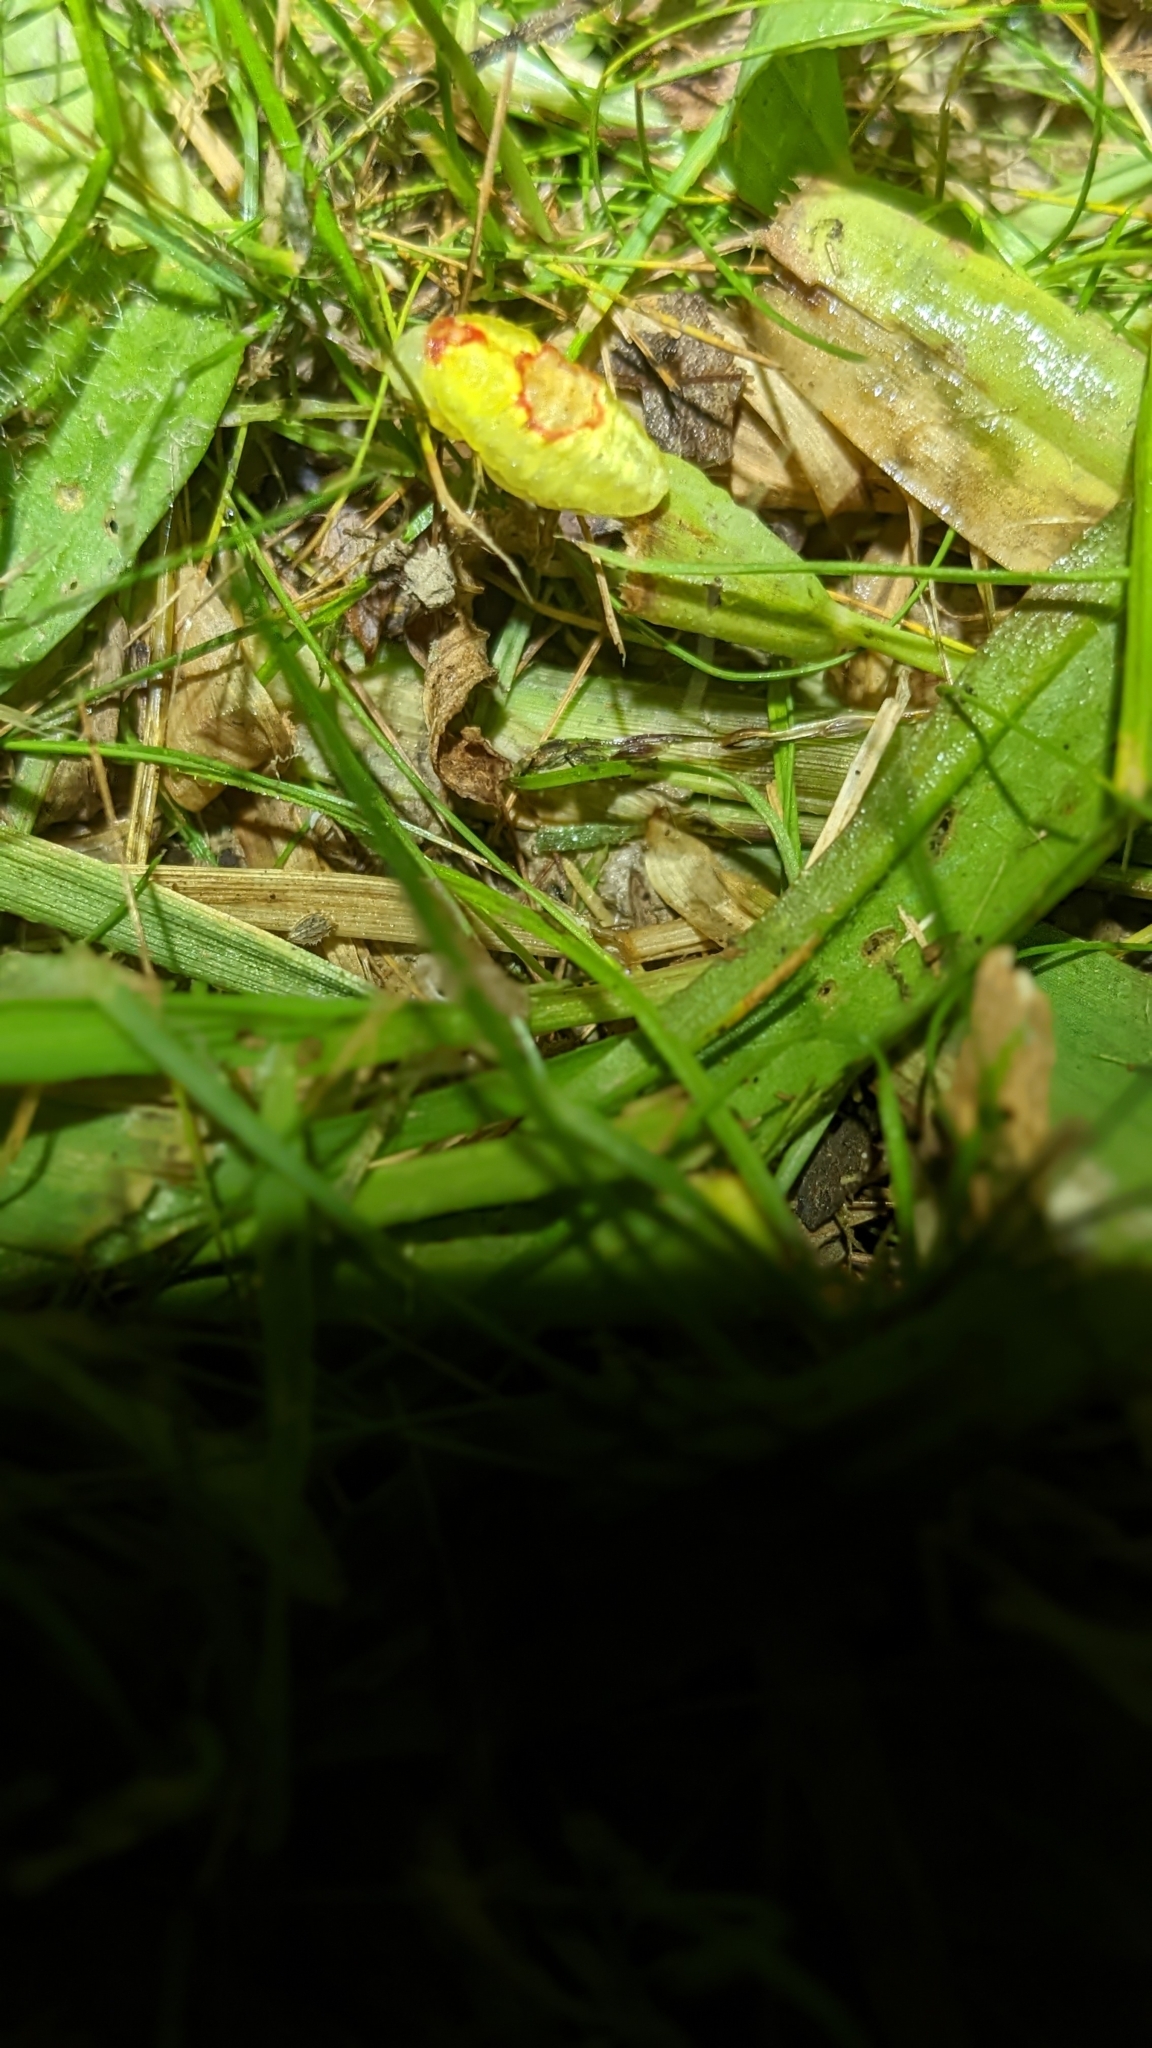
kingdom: Animalia
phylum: Arthropoda
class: Insecta
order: Lepidoptera
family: Limacodidae
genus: Tortricidia
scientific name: Tortricidia flexuosa
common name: Abbreviated button slug moth
